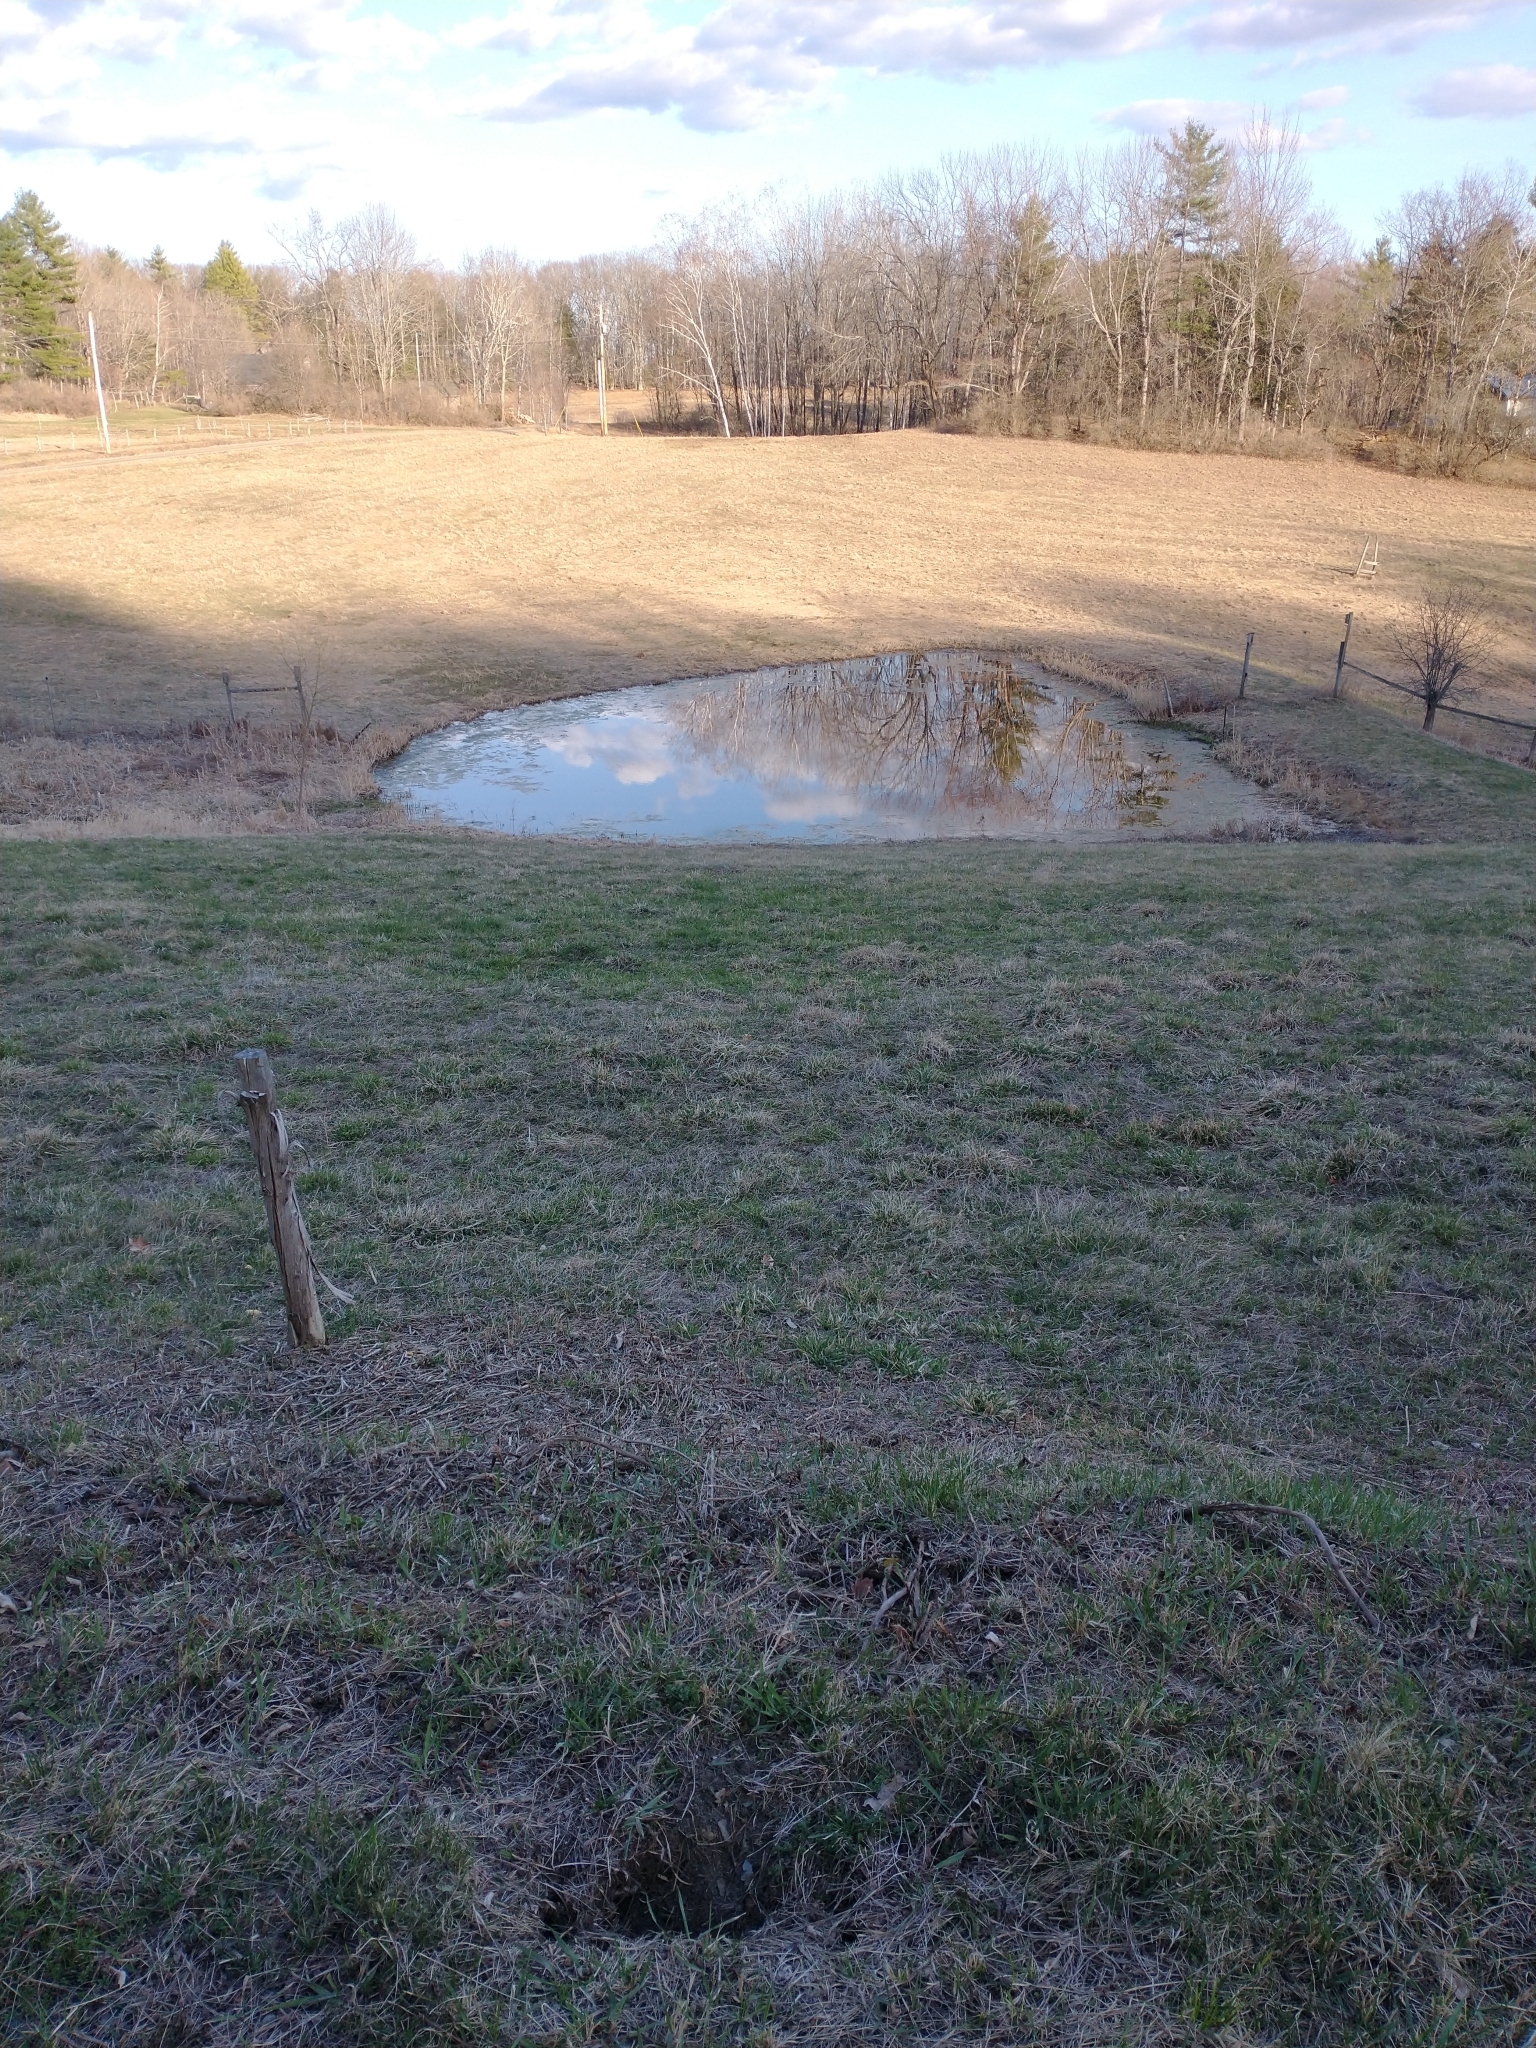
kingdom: Animalia
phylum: Chordata
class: Amphibia
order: Anura
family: Hylidae
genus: Pseudacris
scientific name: Pseudacris crucifer
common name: Spring peeper
